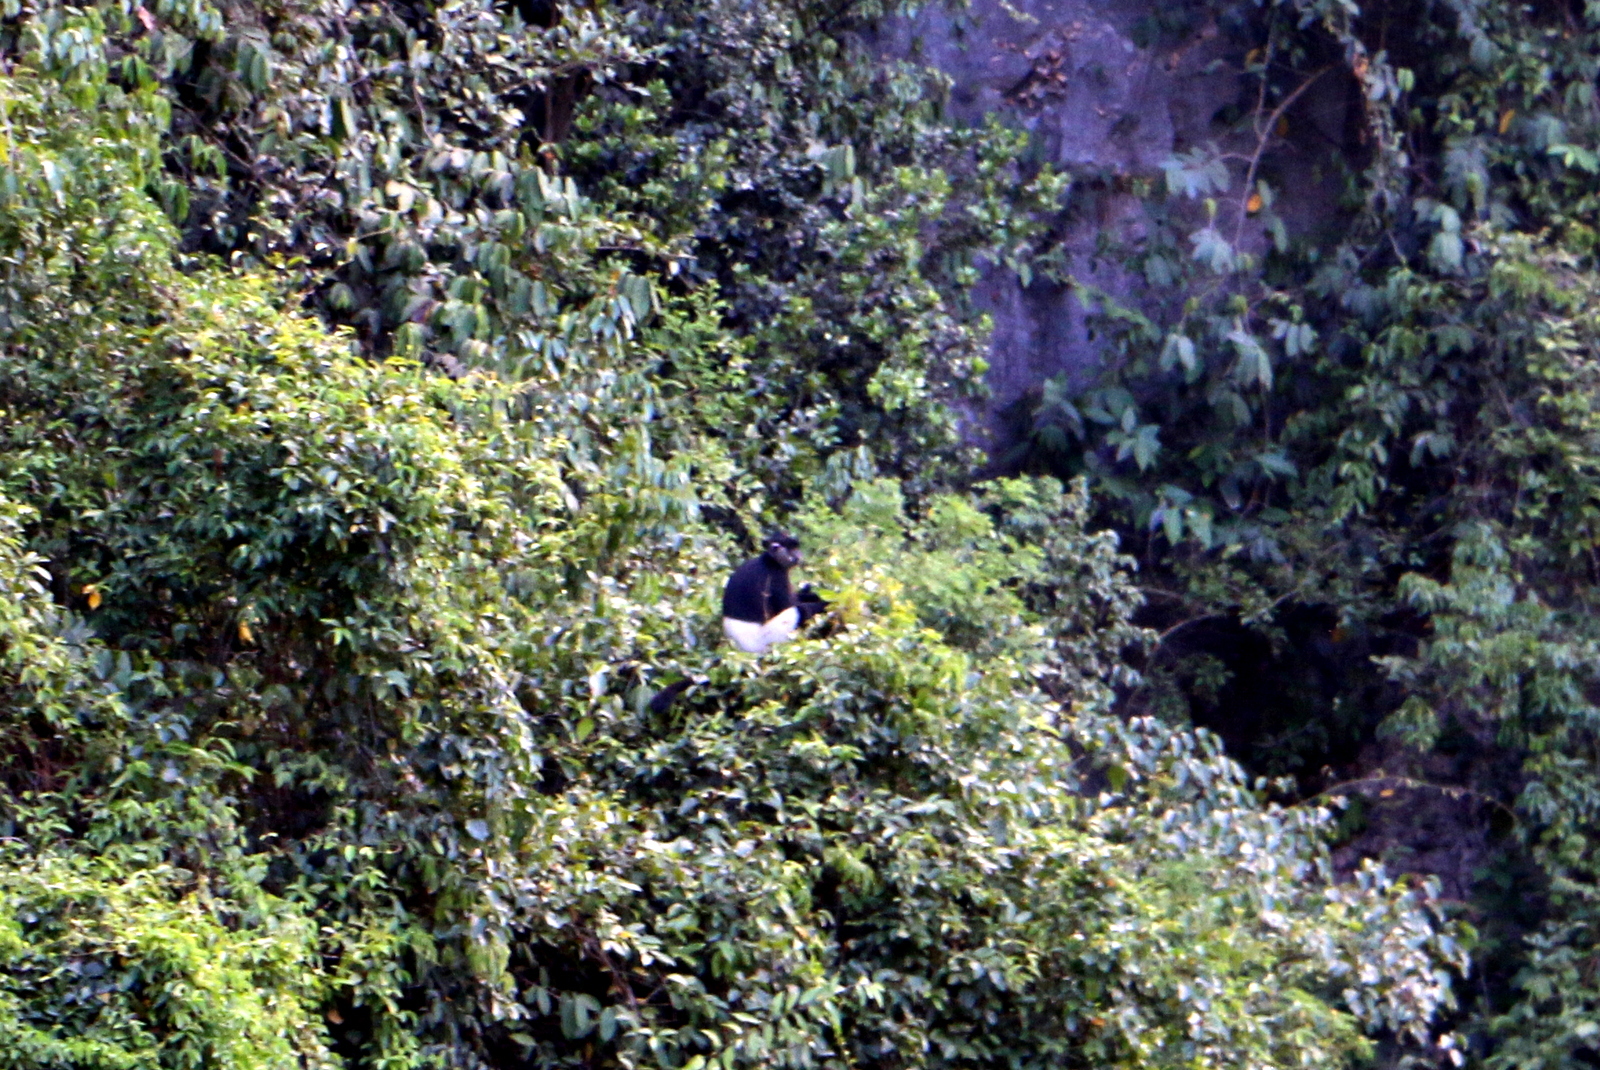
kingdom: Animalia
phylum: Chordata
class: Mammalia
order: Primates
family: Cercopithecidae
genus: Trachypithecus
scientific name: Trachypithecus delacouri
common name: Delacour's langur
